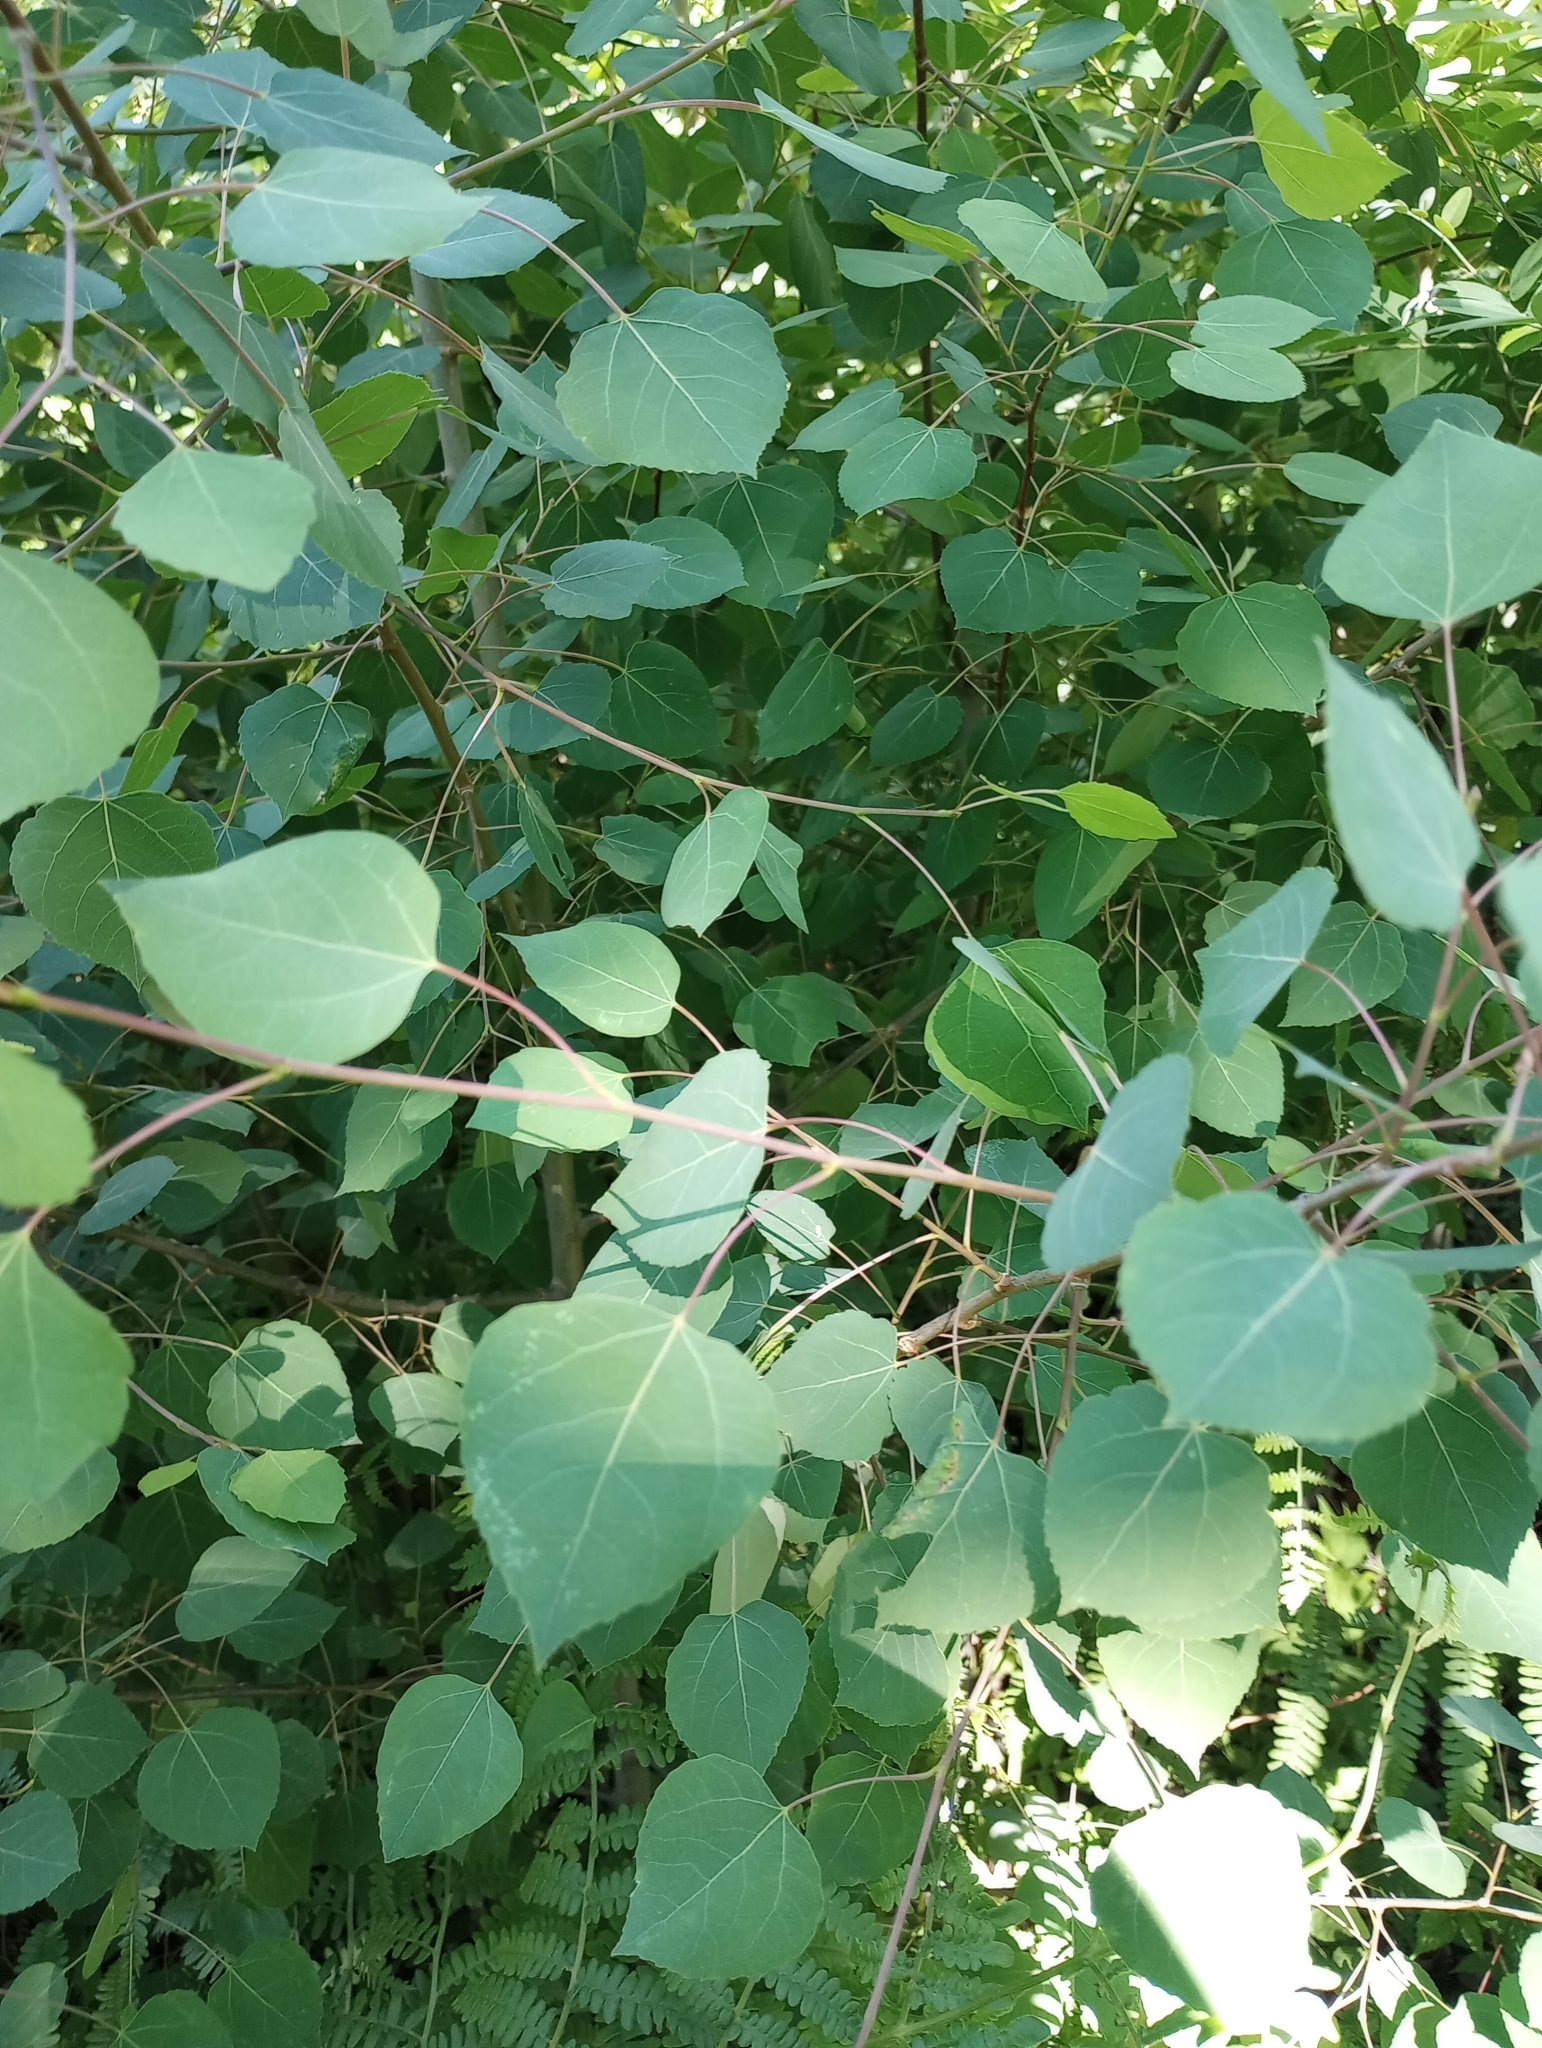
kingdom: Plantae
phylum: Tracheophyta
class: Magnoliopsida
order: Malpighiales
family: Salicaceae
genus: Populus
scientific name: Populus tremuloides
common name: Quaking aspen
